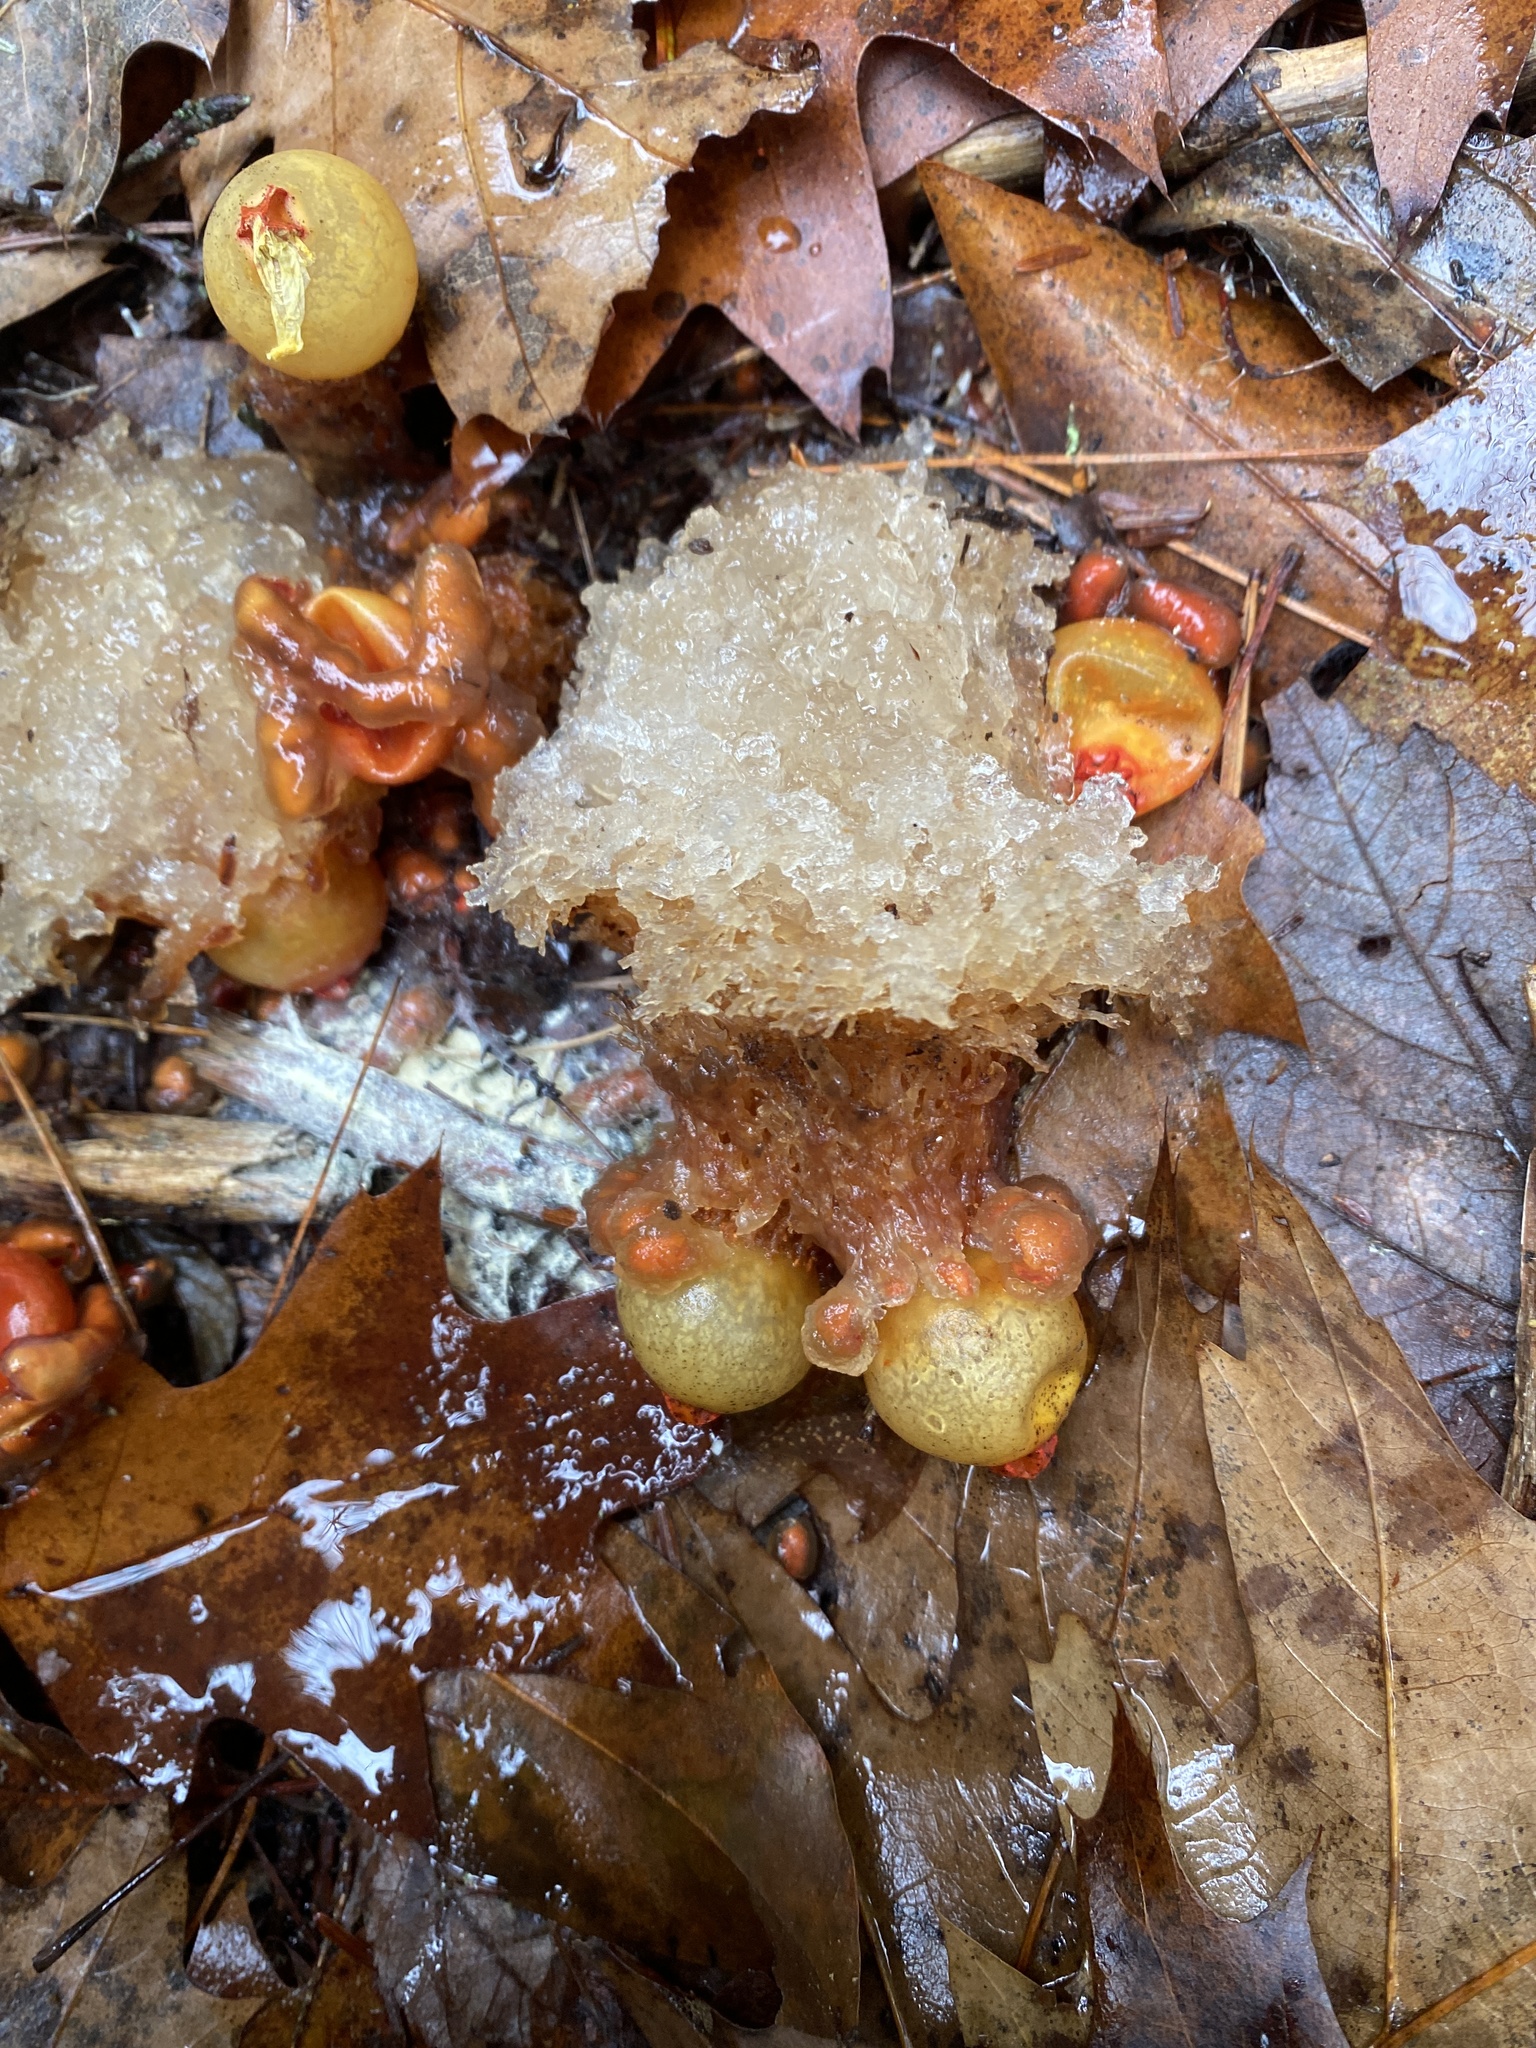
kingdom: Fungi
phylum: Basidiomycota
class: Agaricomycetes
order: Boletales
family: Calostomataceae
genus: Calostoma
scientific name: Calostoma cinnabarinum
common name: Stalked puffball-in-aspic
